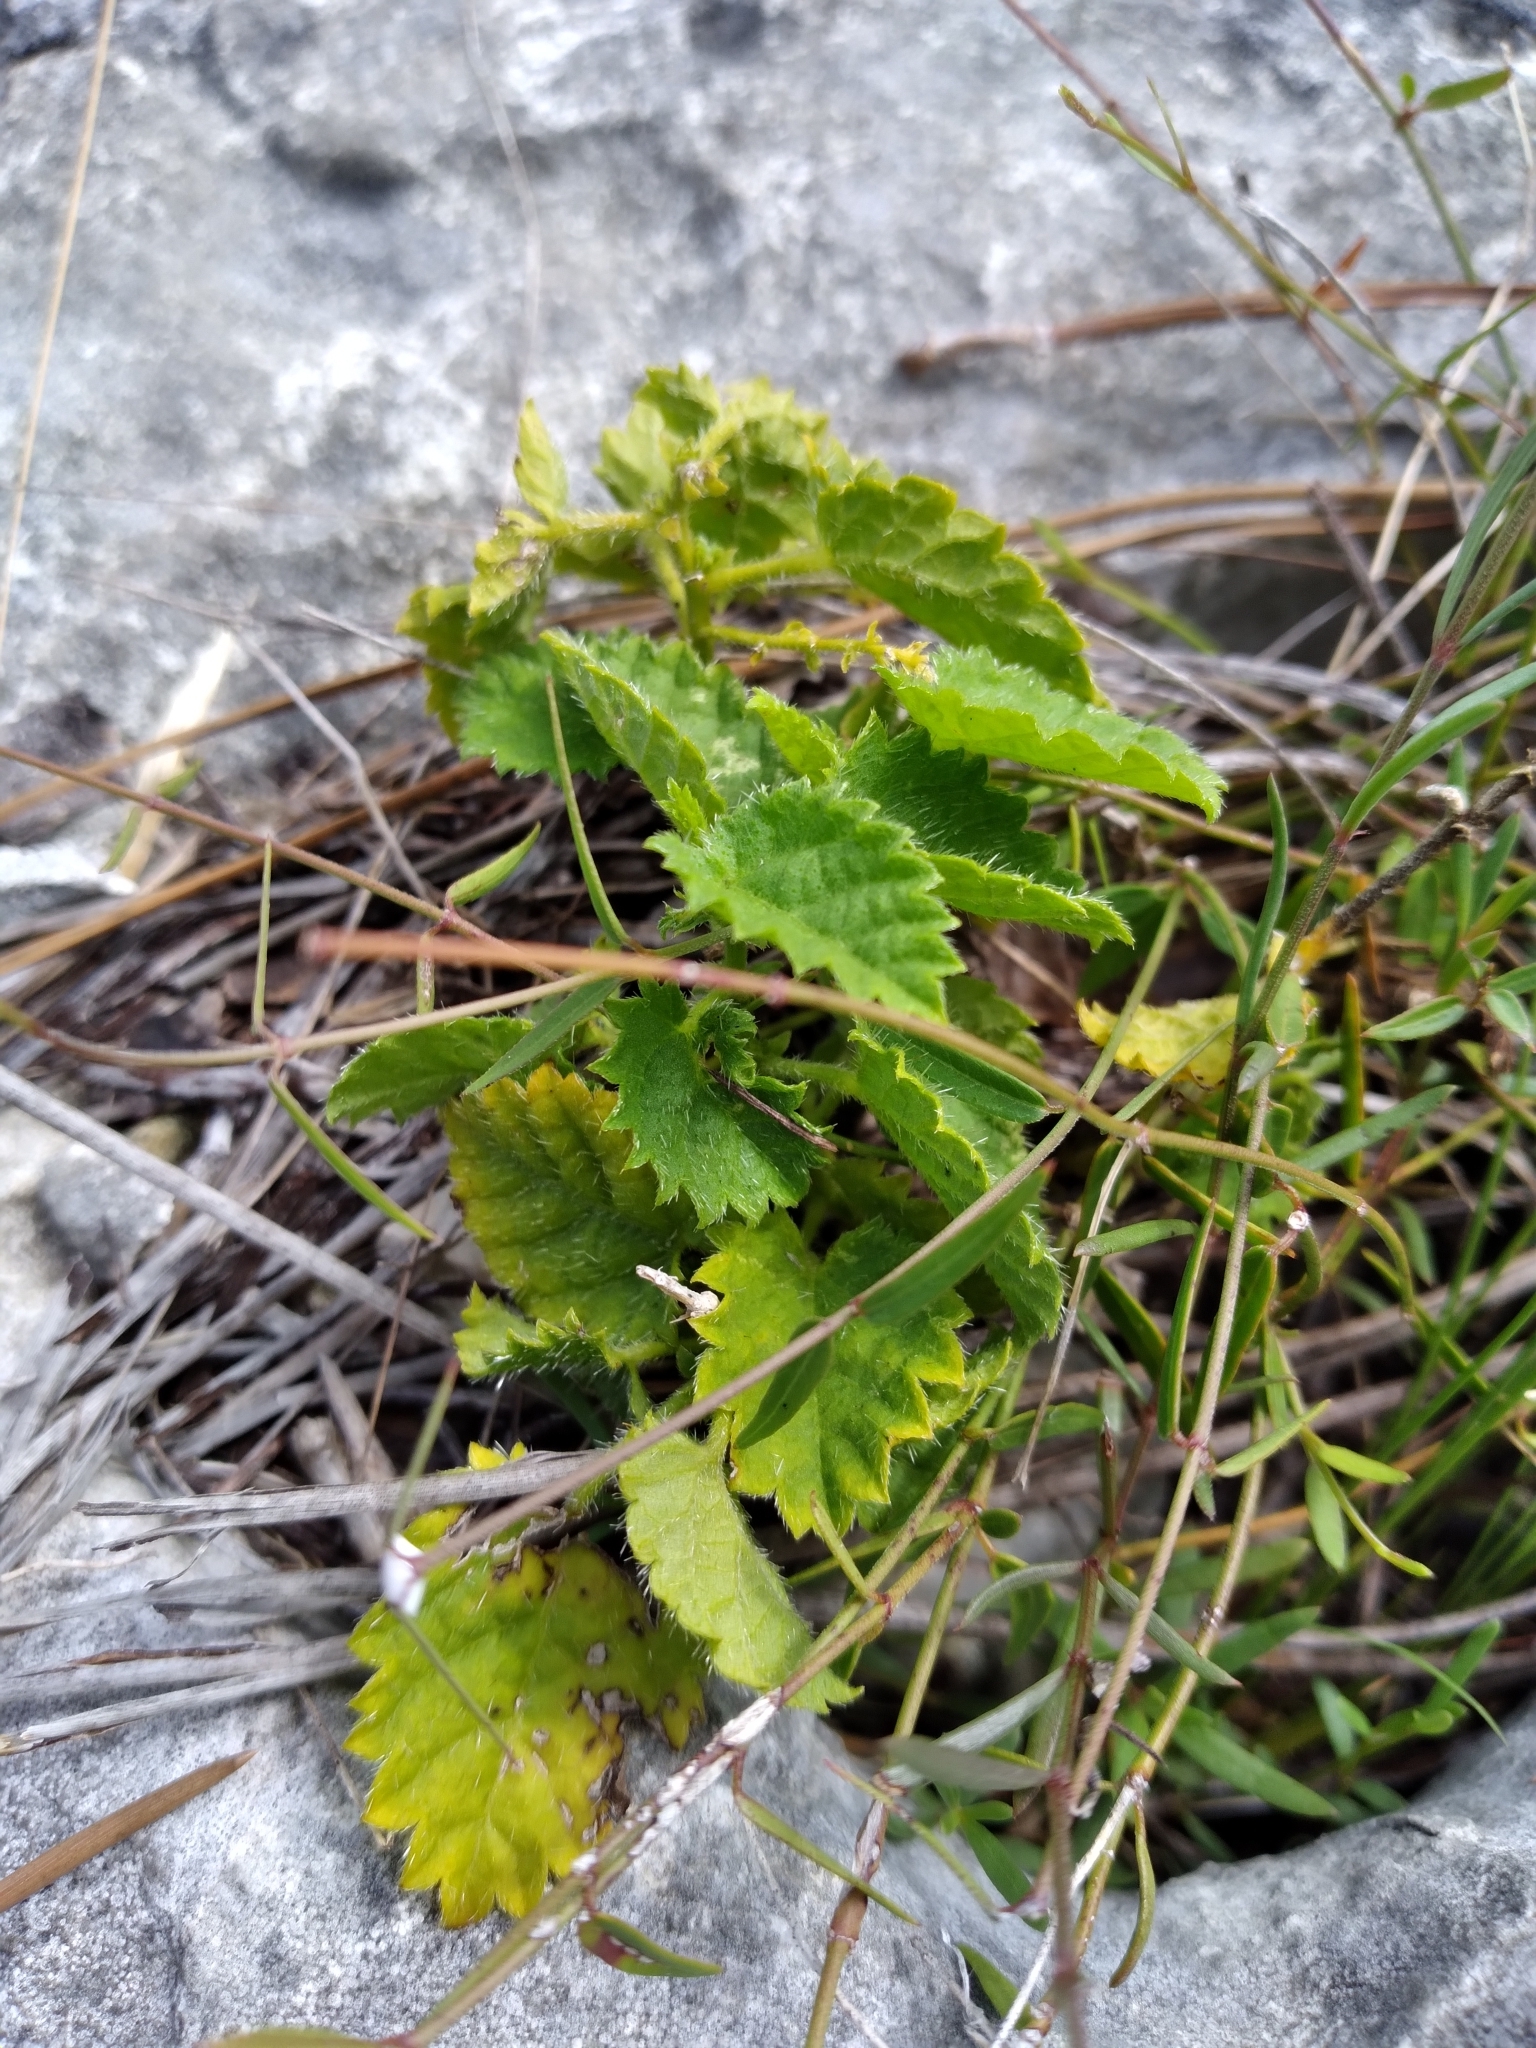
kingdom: Plantae
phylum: Tracheophyta
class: Magnoliopsida
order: Malpighiales
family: Euphorbiaceae
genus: Tragia
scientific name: Tragia saxicola
